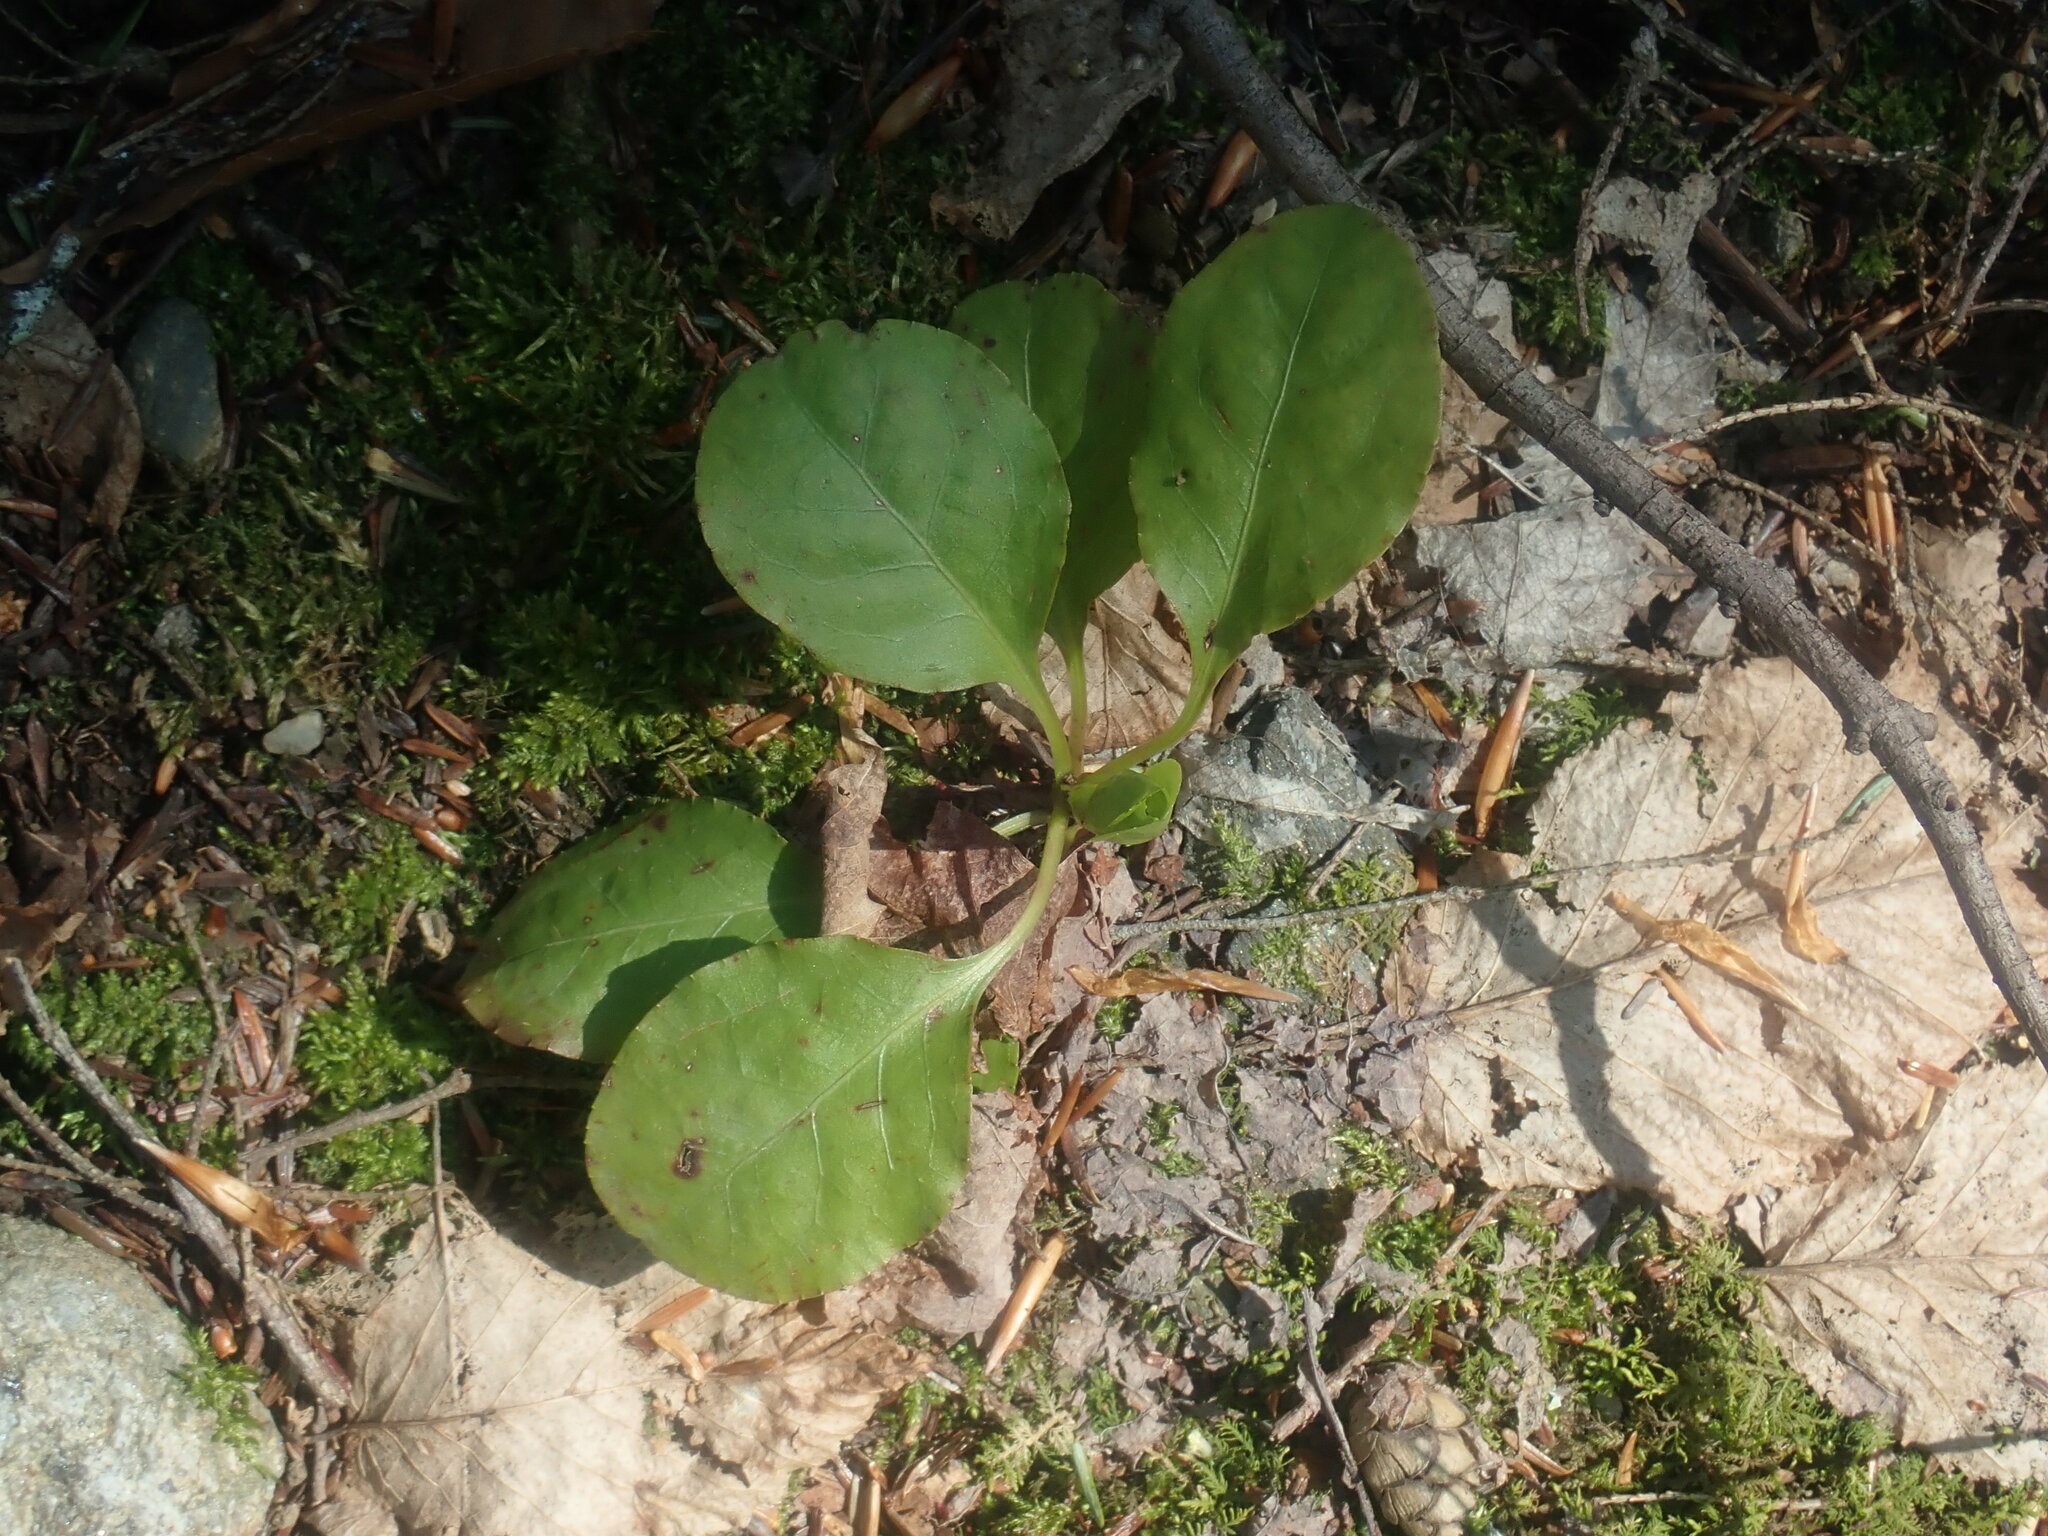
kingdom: Plantae
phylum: Tracheophyta
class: Magnoliopsida
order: Ericales
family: Ericaceae
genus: Pyrola
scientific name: Pyrola elliptica
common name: Shinleaf
